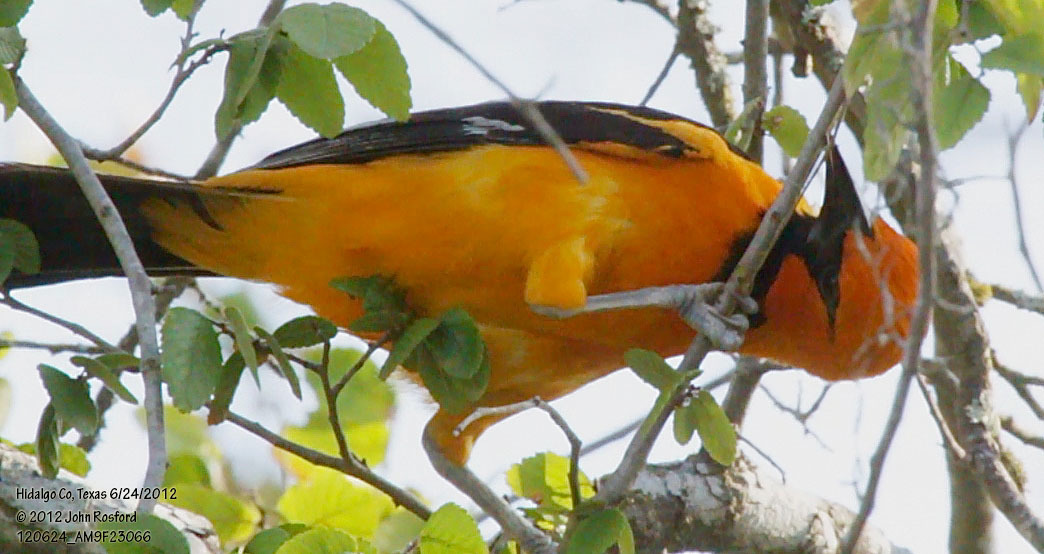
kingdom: Animalia
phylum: Chordata
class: Aves
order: Passeriformes
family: Icteridae
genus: Icterus
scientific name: Icterus gularis
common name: Altamira oriole
